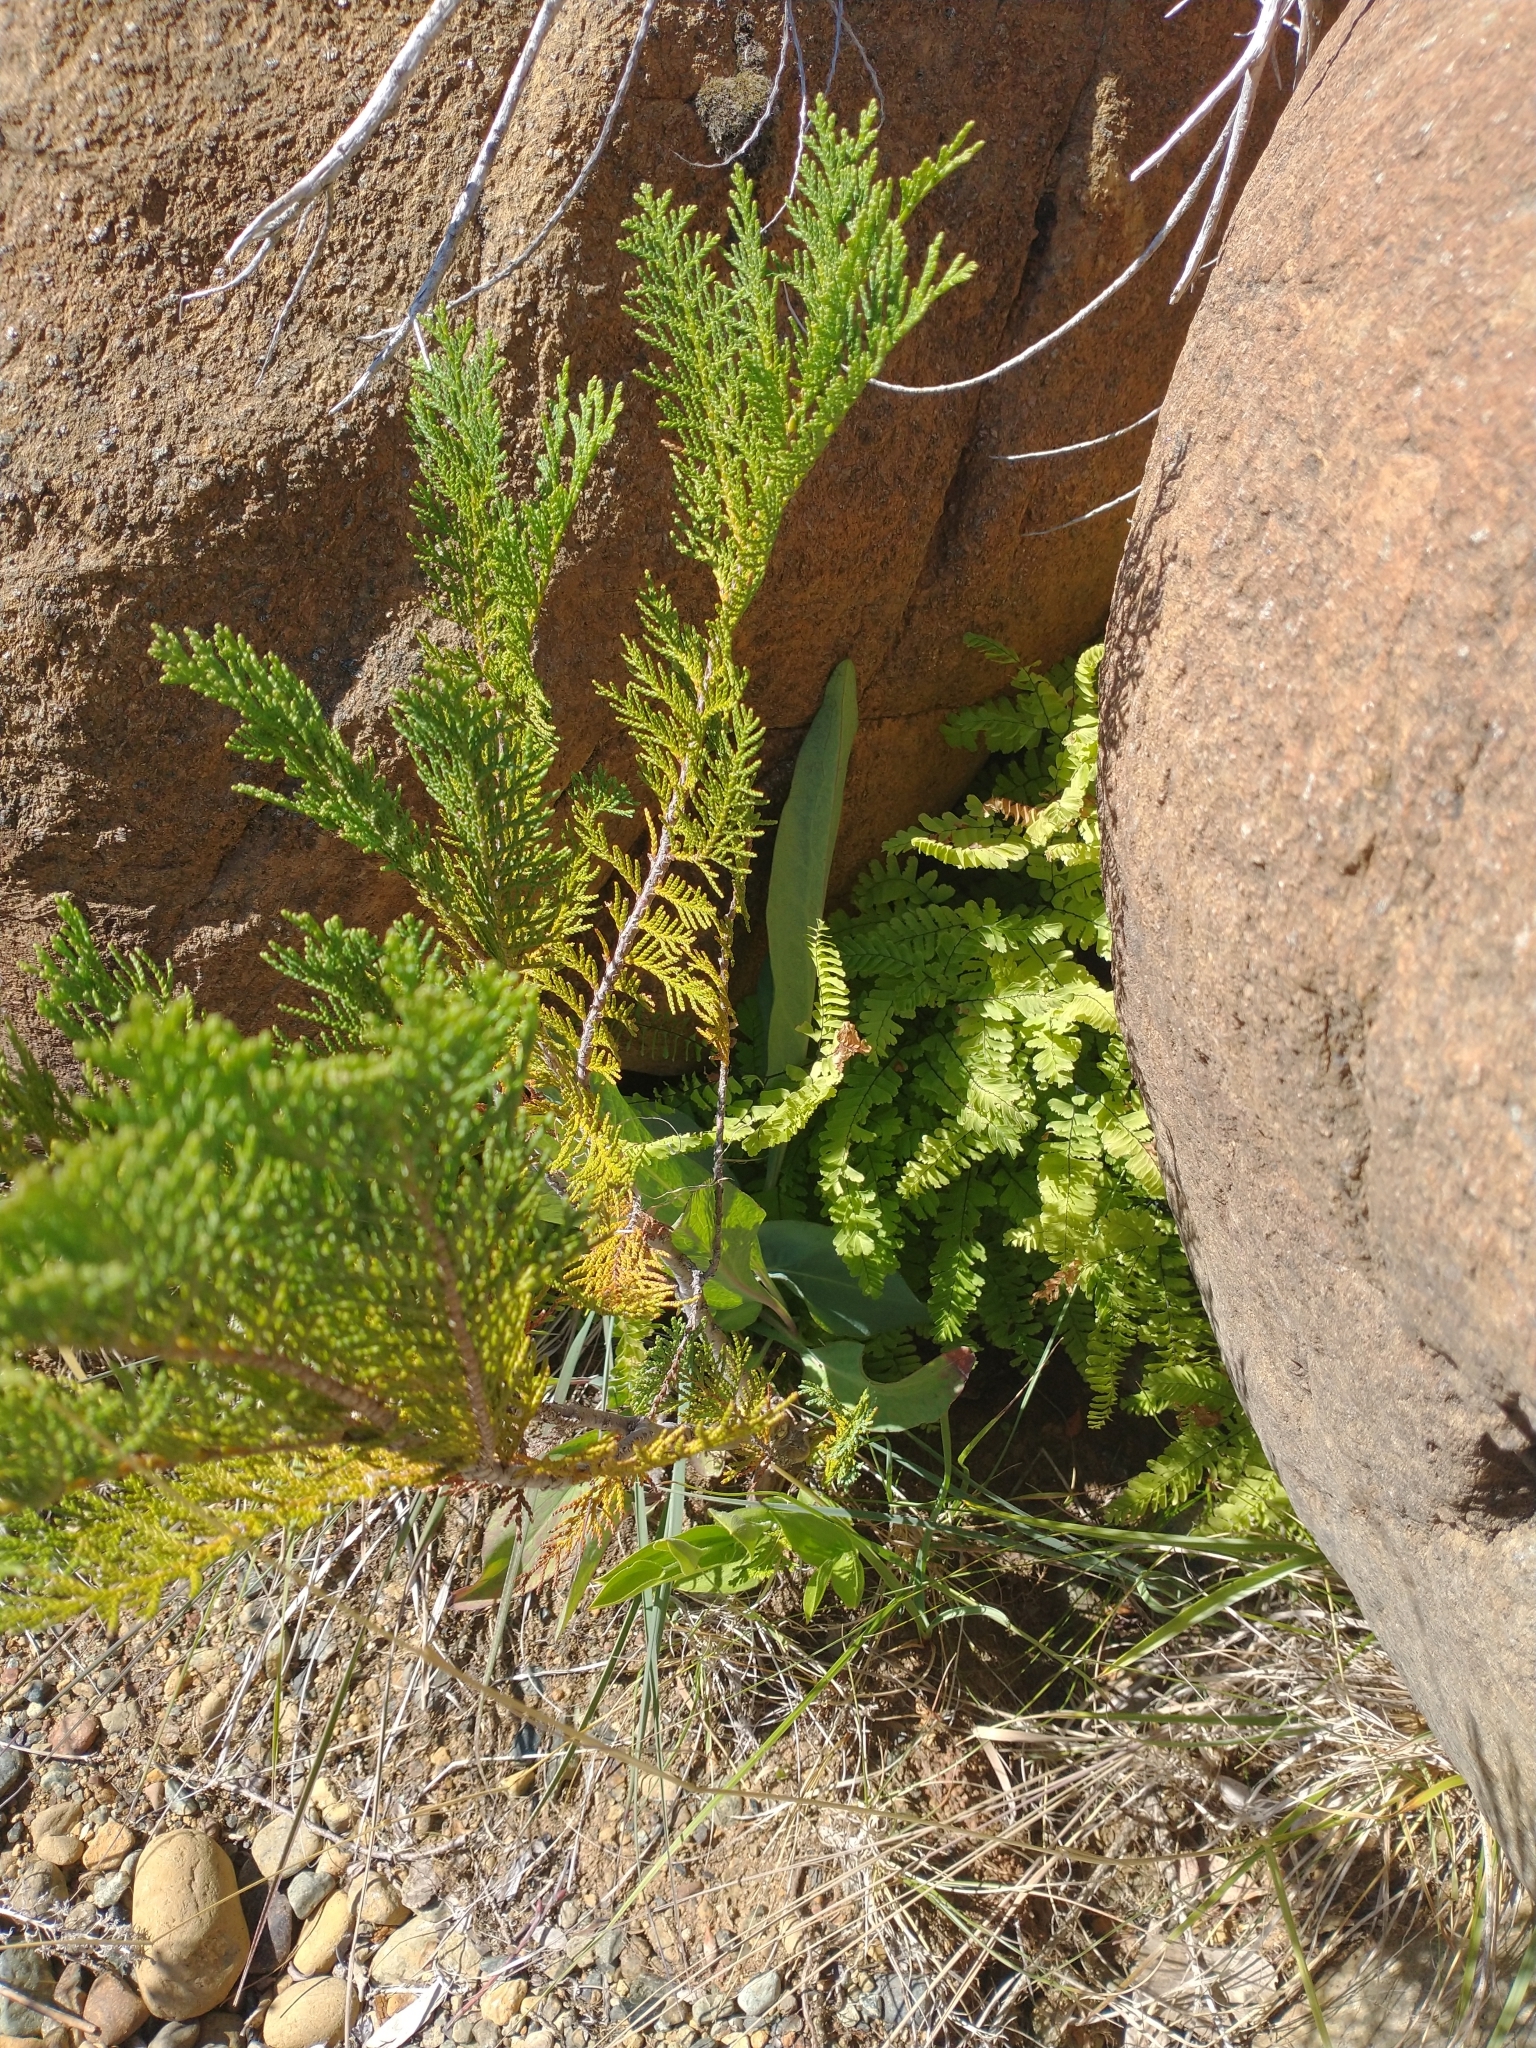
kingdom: Plantae
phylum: Tracheophyta
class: Polypodiopsida
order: Polypodiales
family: Pteridaceae
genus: Adiantum
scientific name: Adiantum aleuticum
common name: Aleutian maidenhair fern
